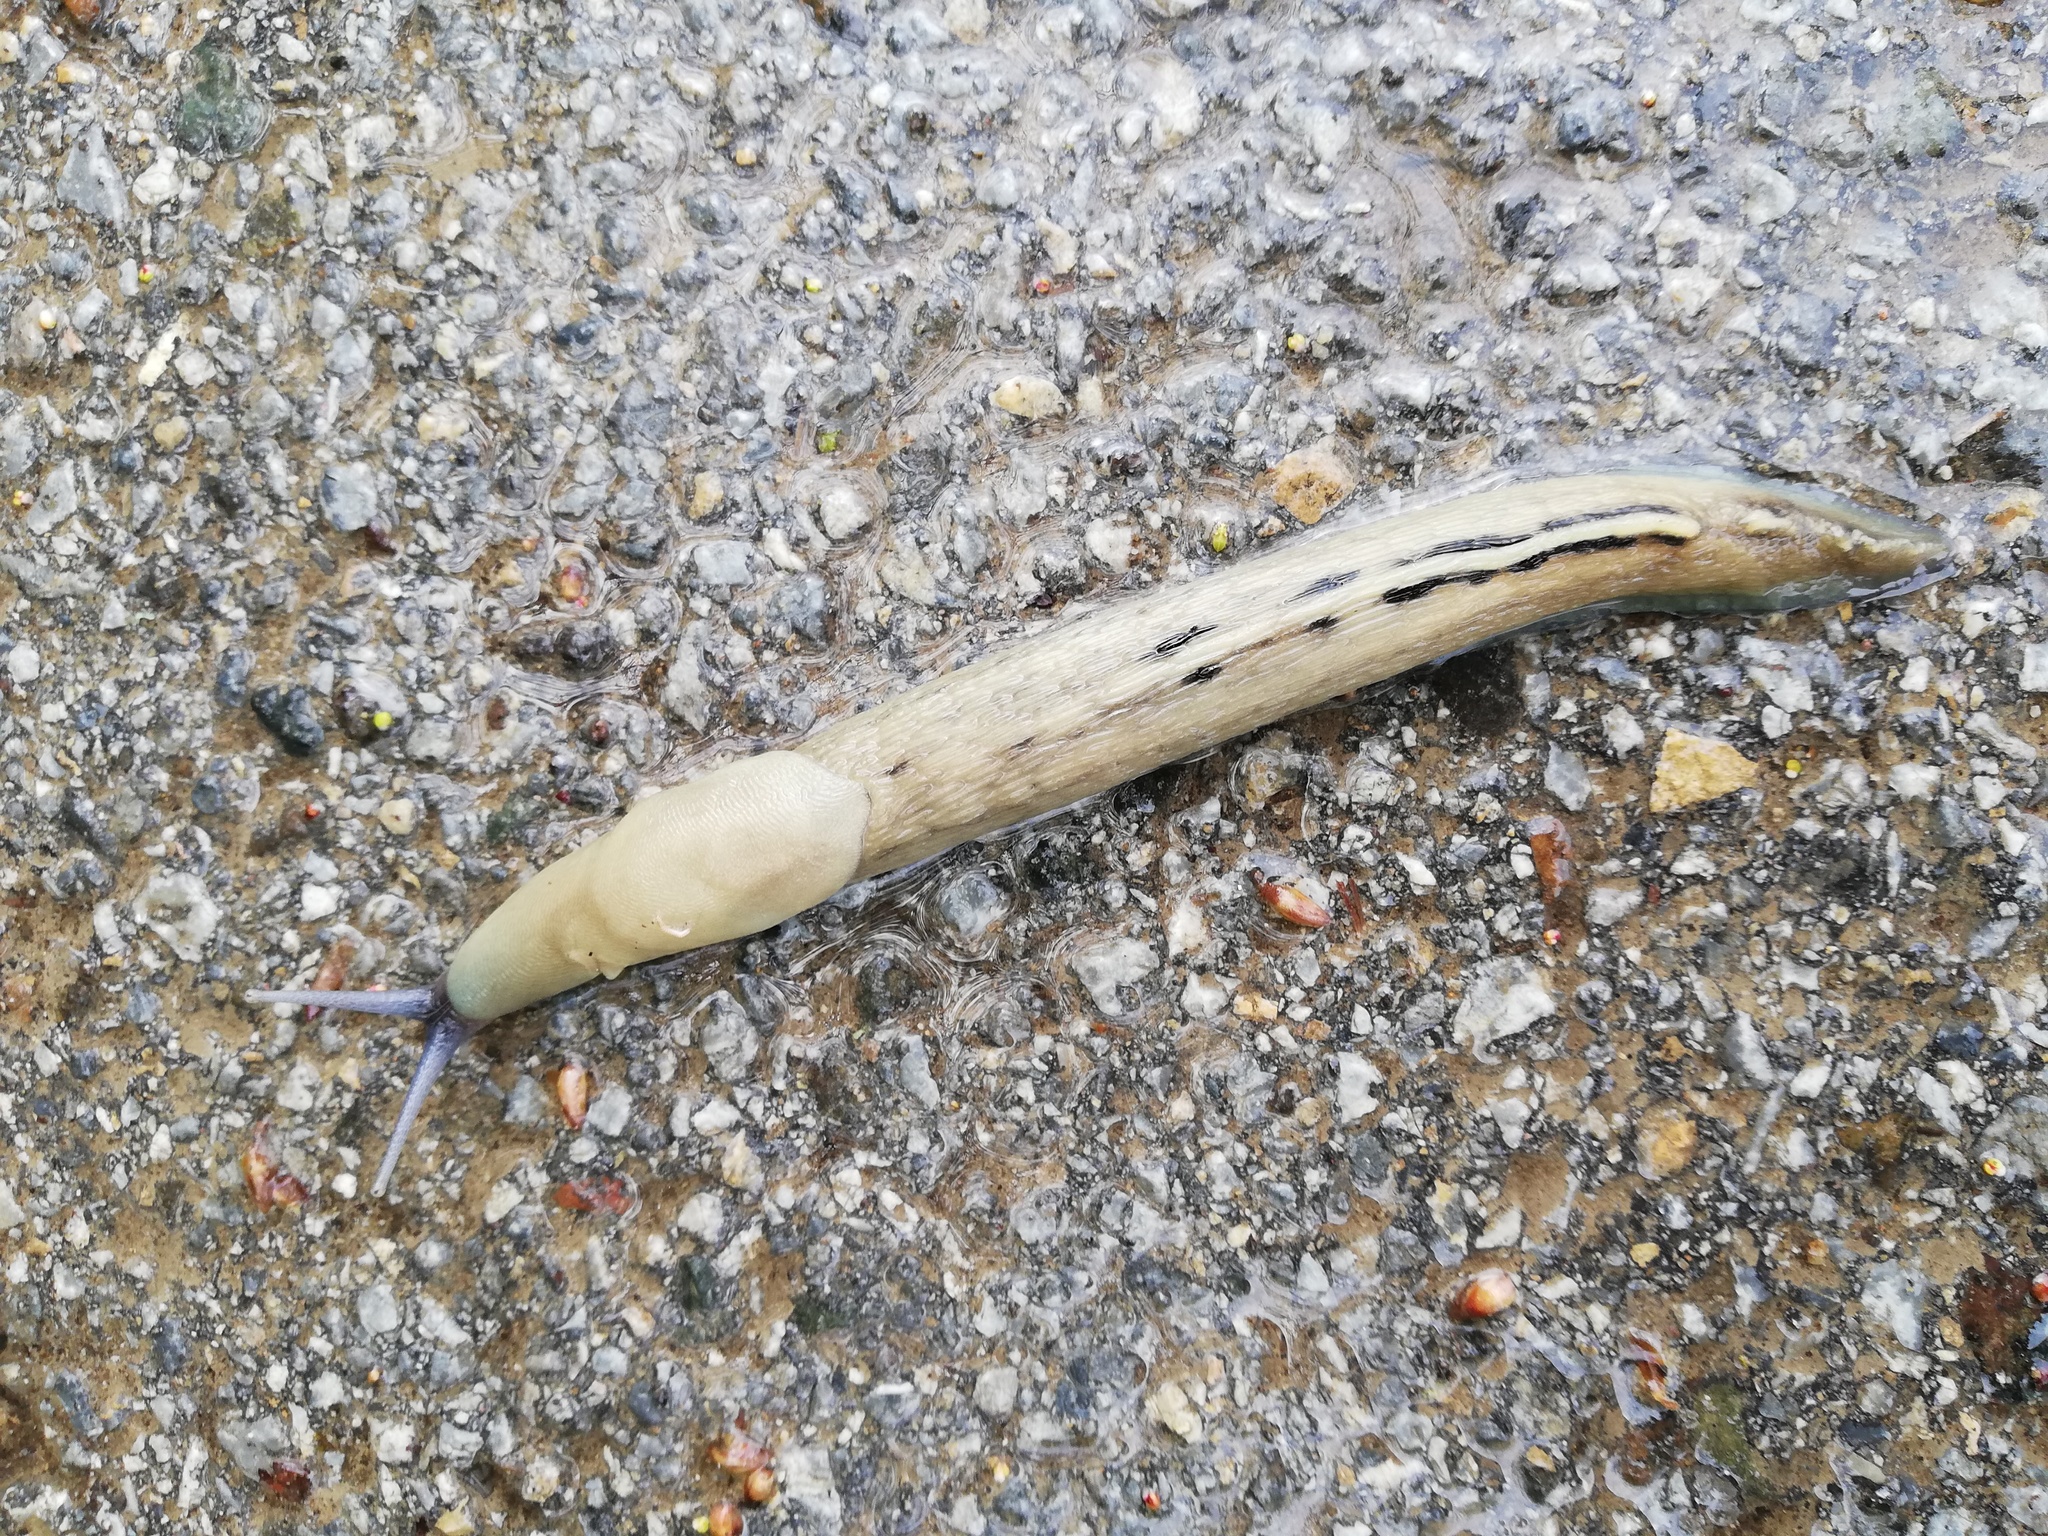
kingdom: Animalia
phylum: Mollusca
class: Gastropoda
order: Stylommatophora
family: Limacidae
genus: Limax
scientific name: Limax cinereoniger
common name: Ash-black slug
